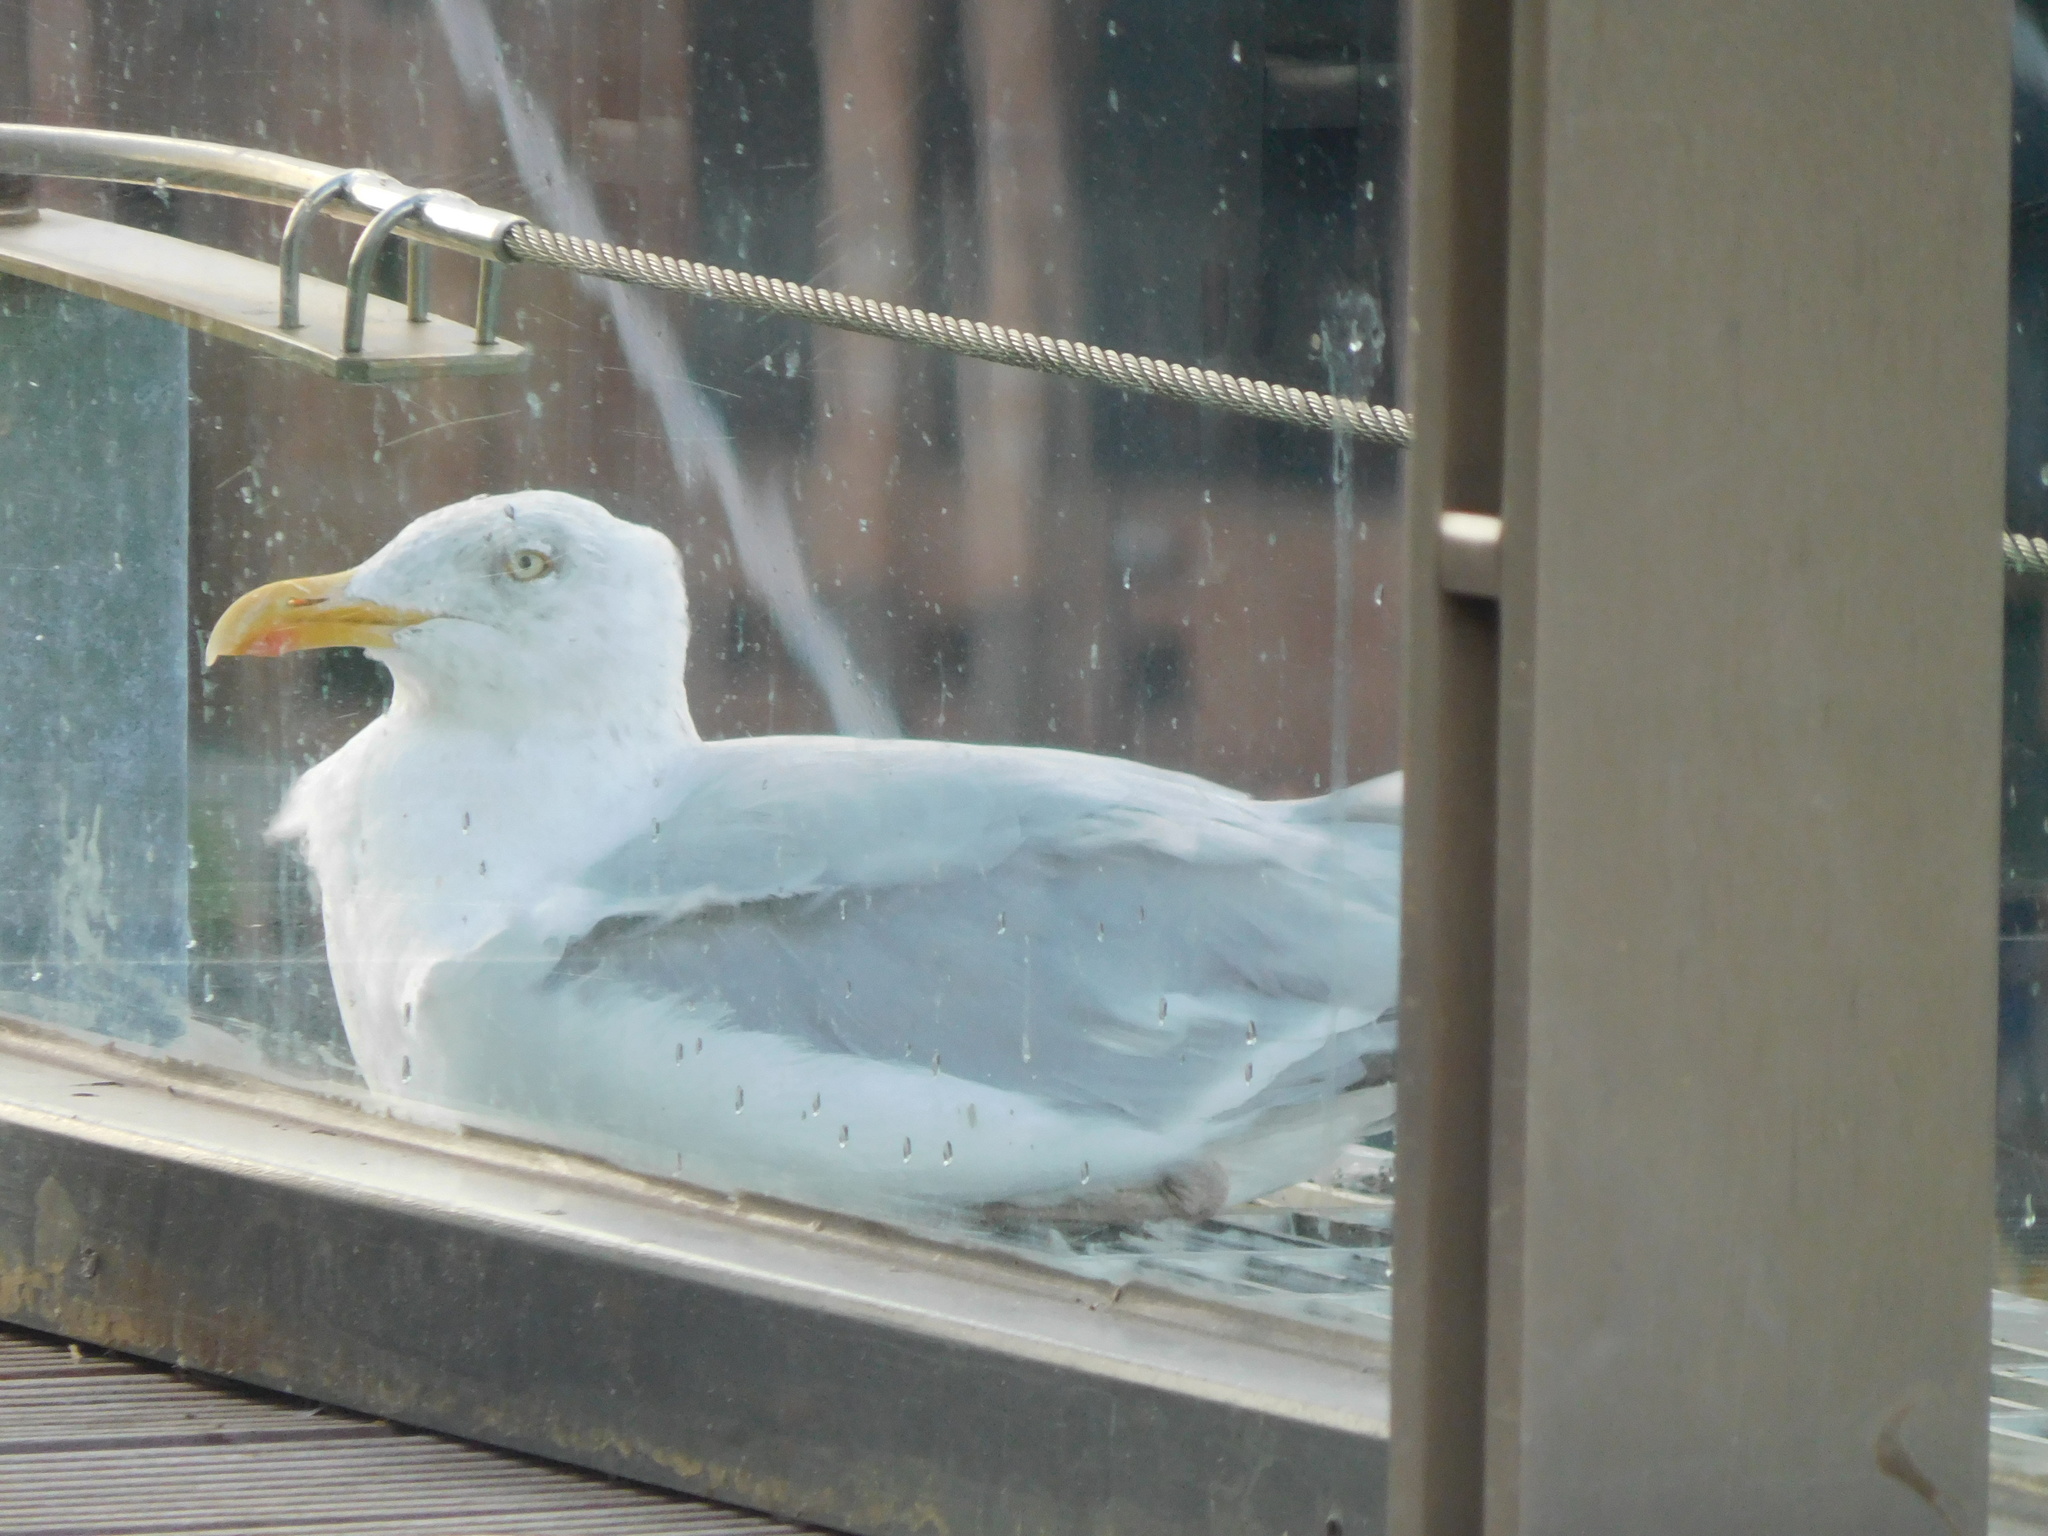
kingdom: Animalia
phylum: Chordata
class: Aves
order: Charadriiformes
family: Laridae
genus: Larus
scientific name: Larus argentatus
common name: Herring gull
